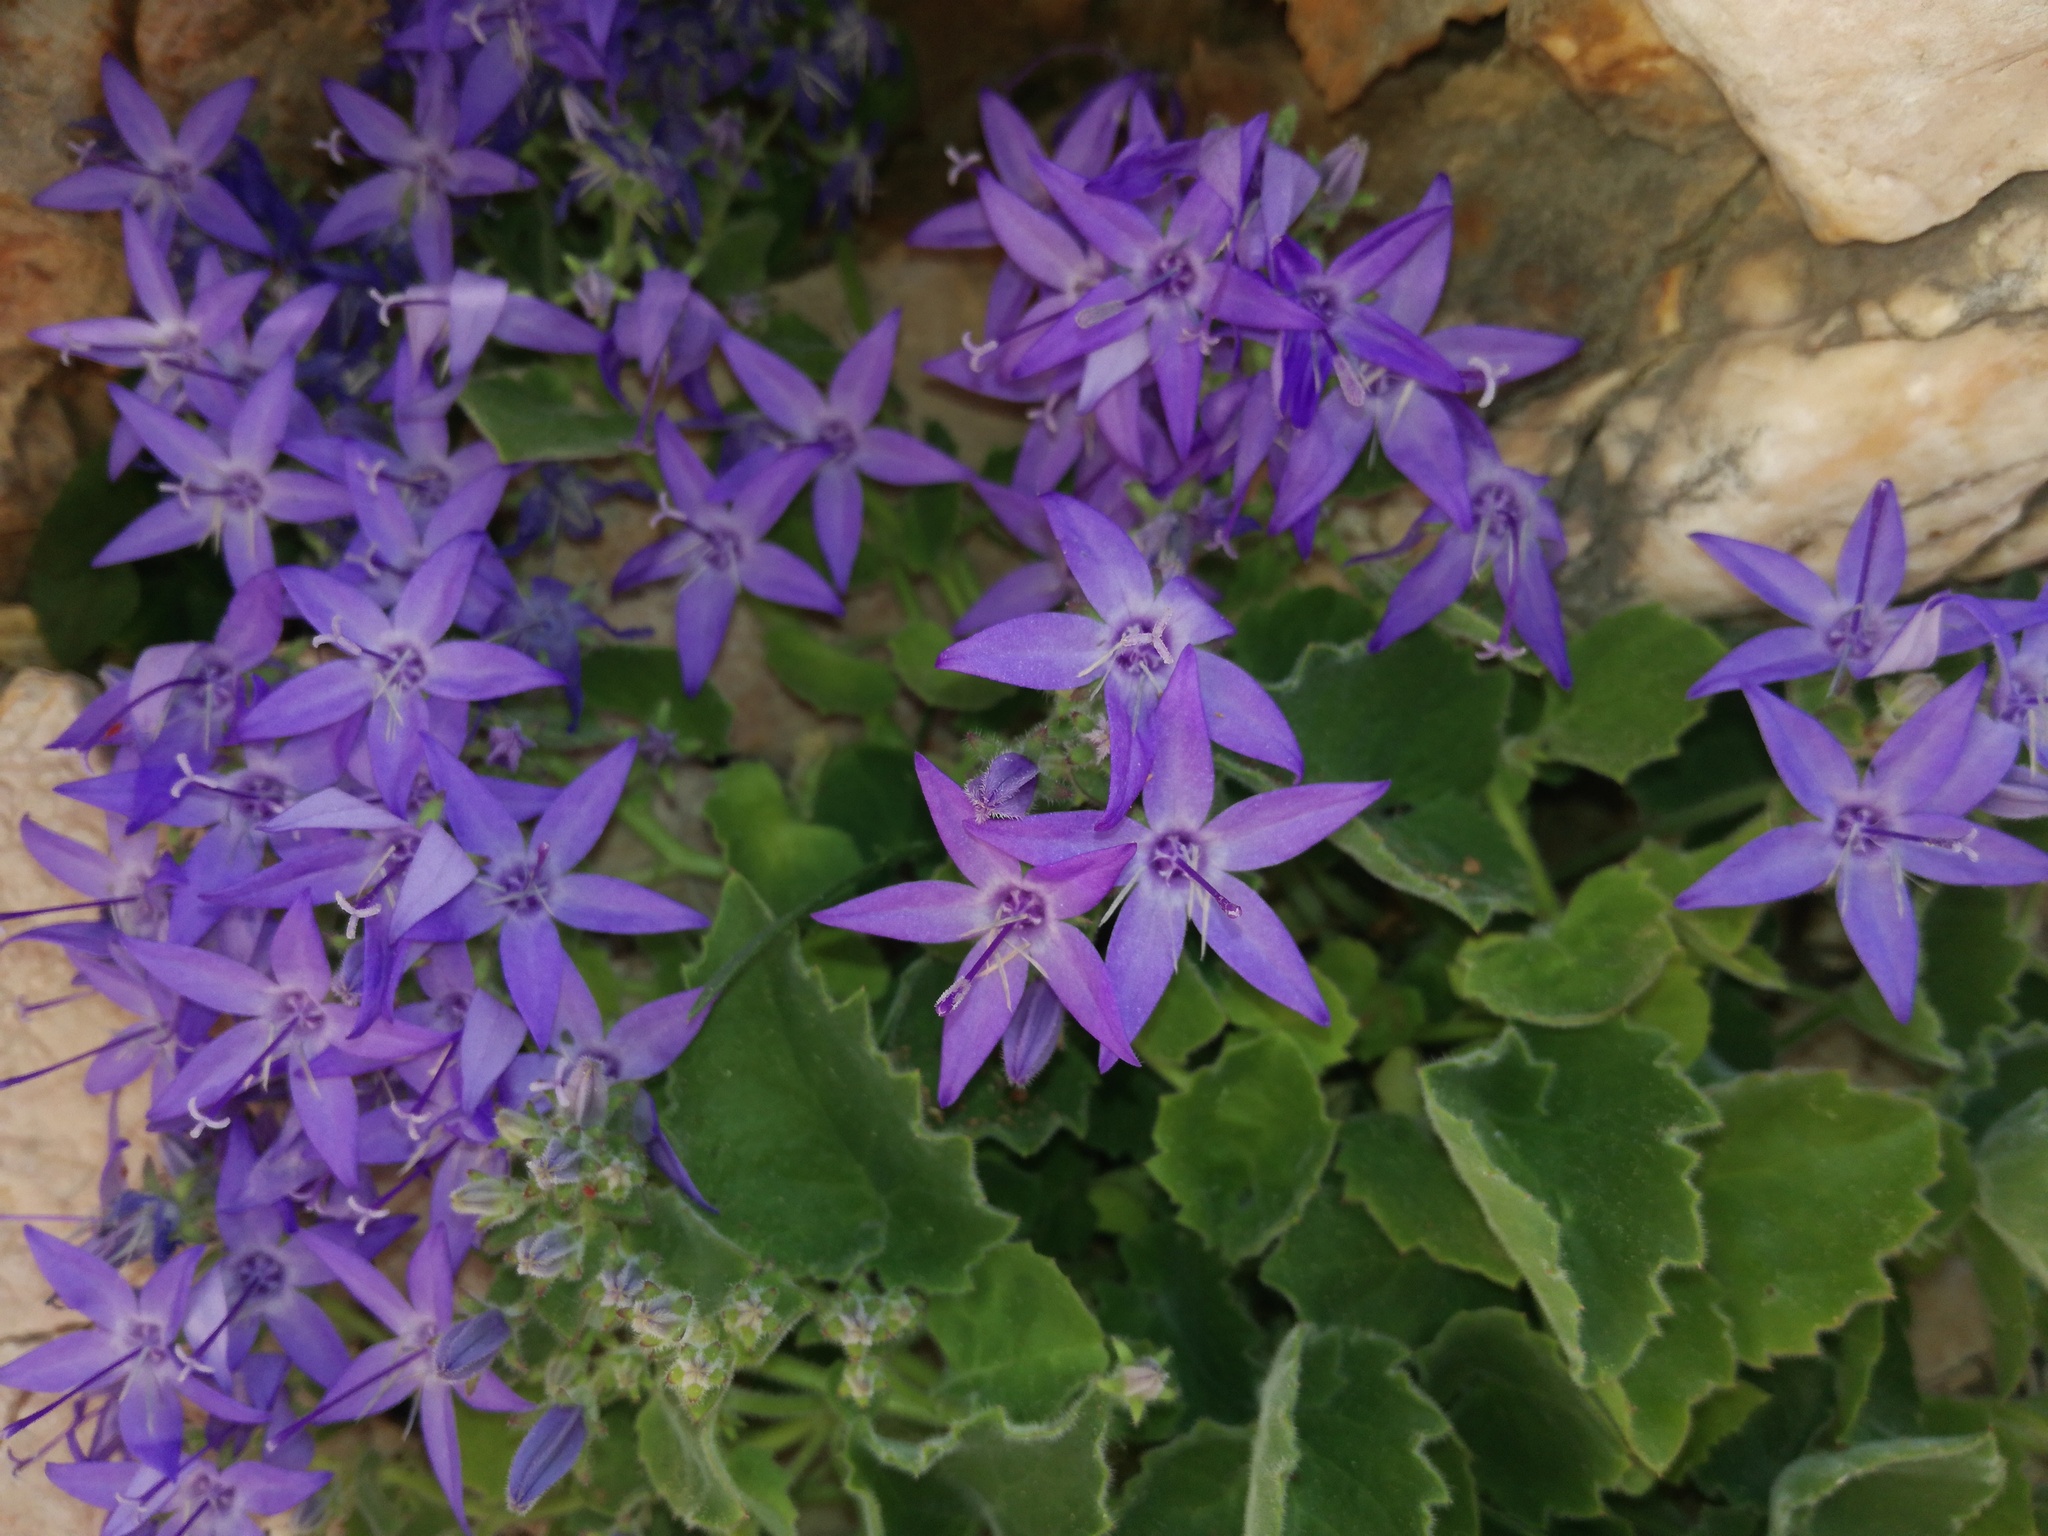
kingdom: Plantae
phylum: Tracheophyta
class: Magnoliopsida
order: Asterales
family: Campanulaceae
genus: Campanula
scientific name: Campanula fenestrellata
